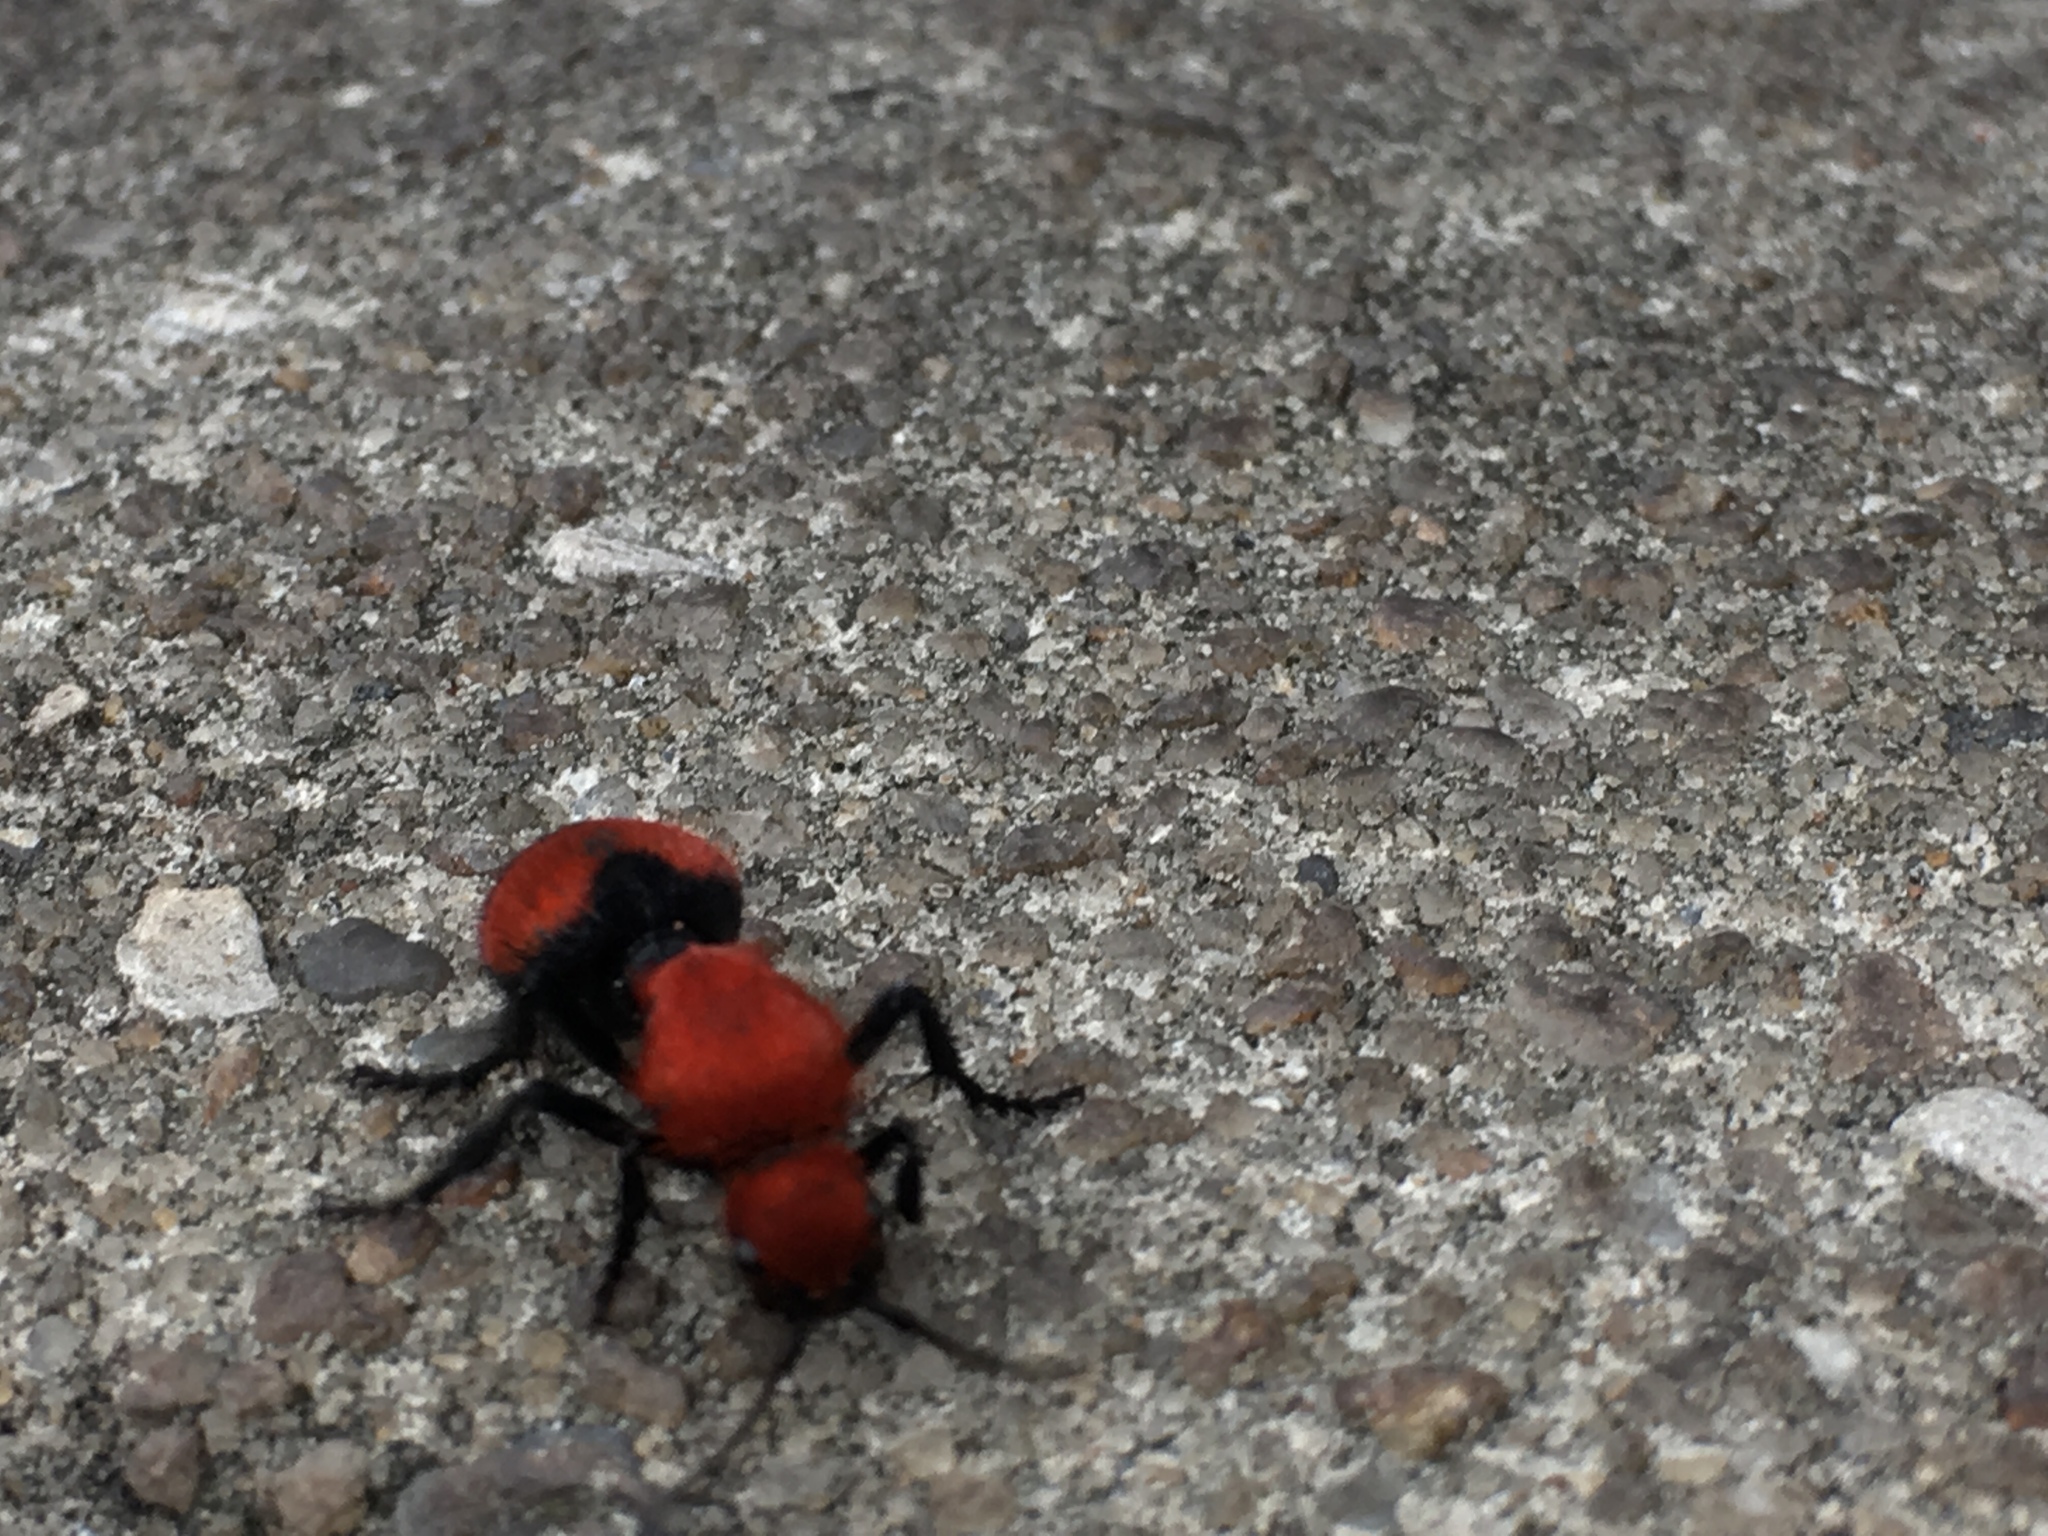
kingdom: Animalia
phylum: Arthropoda
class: Insecta
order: Hymenoptera
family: Mutillidae
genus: Dasymutilla
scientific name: Dasymutilla occidentalis
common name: Common eastern velvet ant
